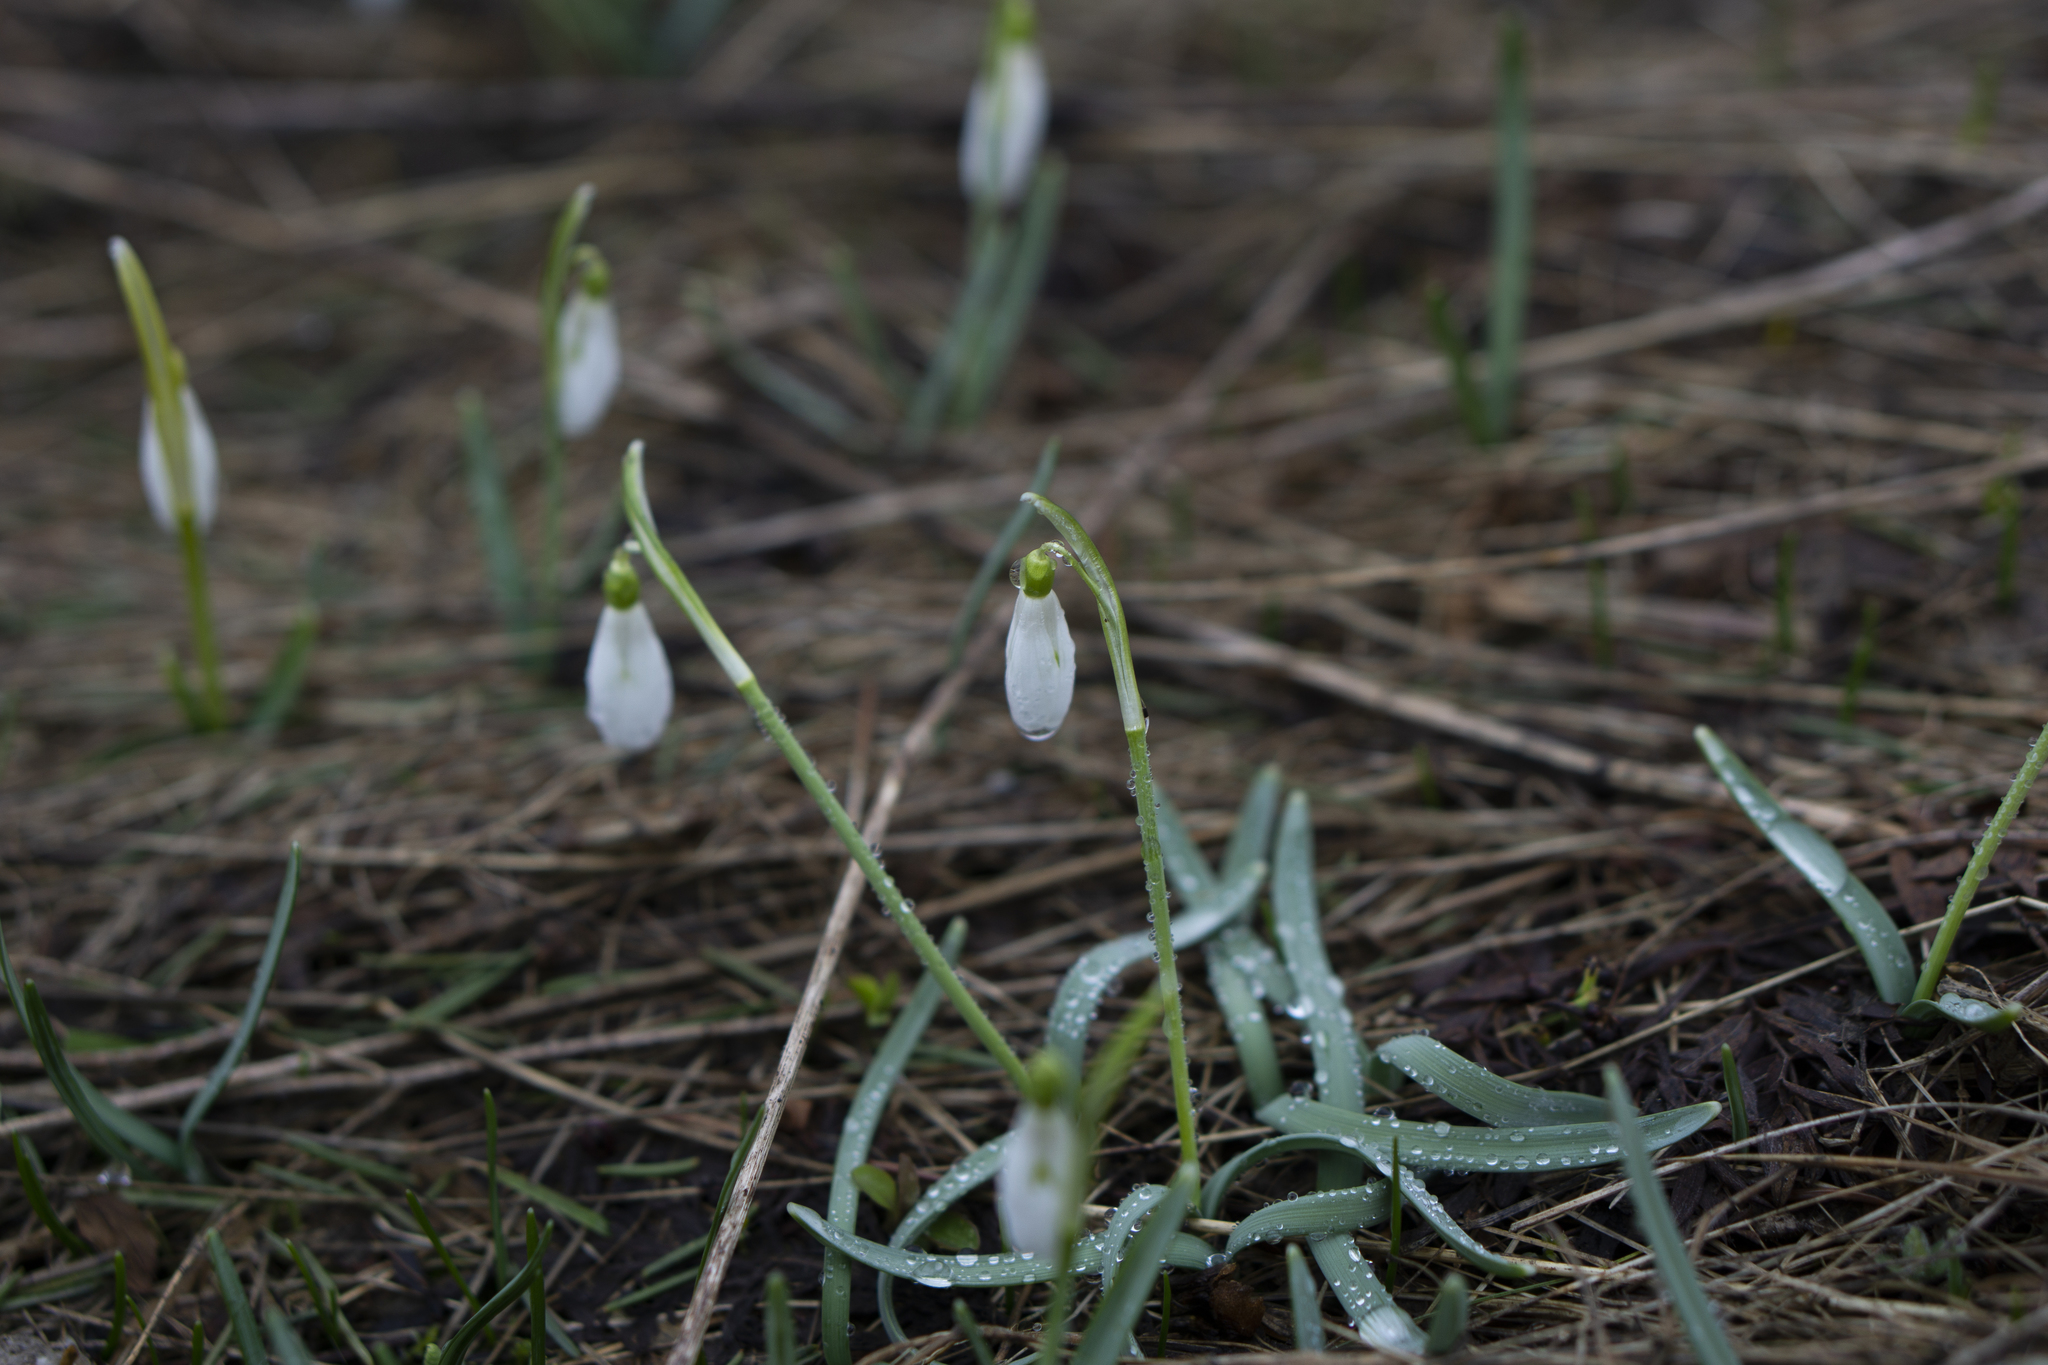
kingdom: Plantae
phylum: Tracheophyta
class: Liliopsida
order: Asparagales
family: Amaryllidaceae
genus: Galanthus
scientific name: Galanthus nivalis
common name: Snowdrop
